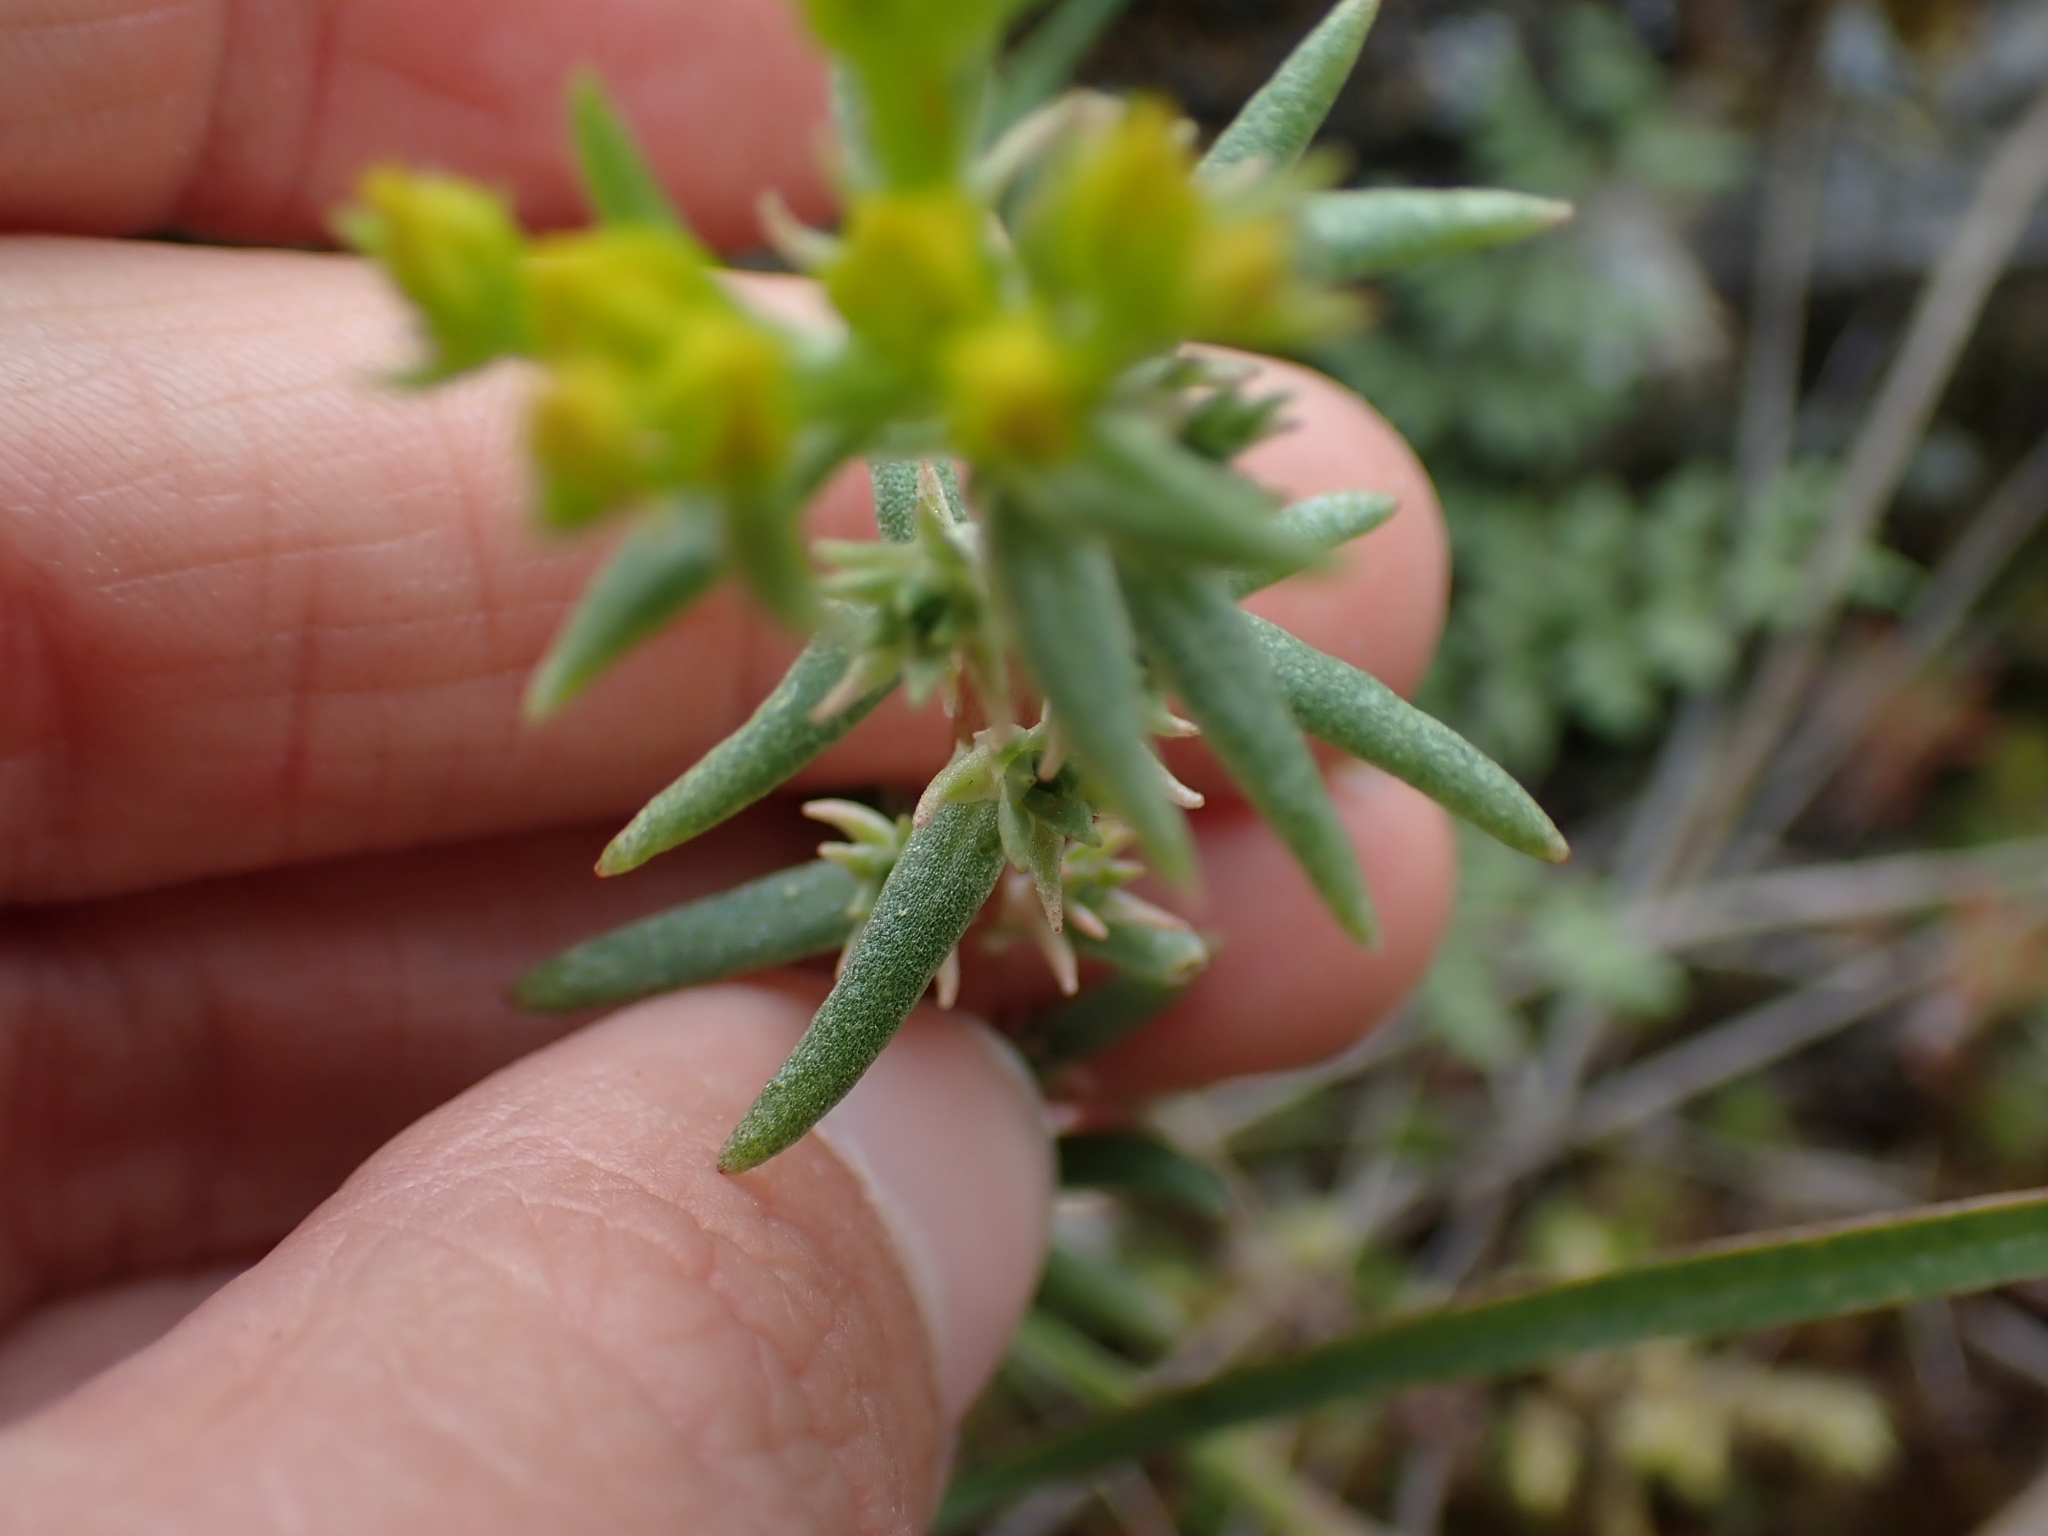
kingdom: Plantae
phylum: Tracheophyta
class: Magnoliopsida
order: Saxifragales
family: Crassulaceae
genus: Sedum
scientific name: Sedum stenopetalum
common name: Narrow-petaled stonecrop
